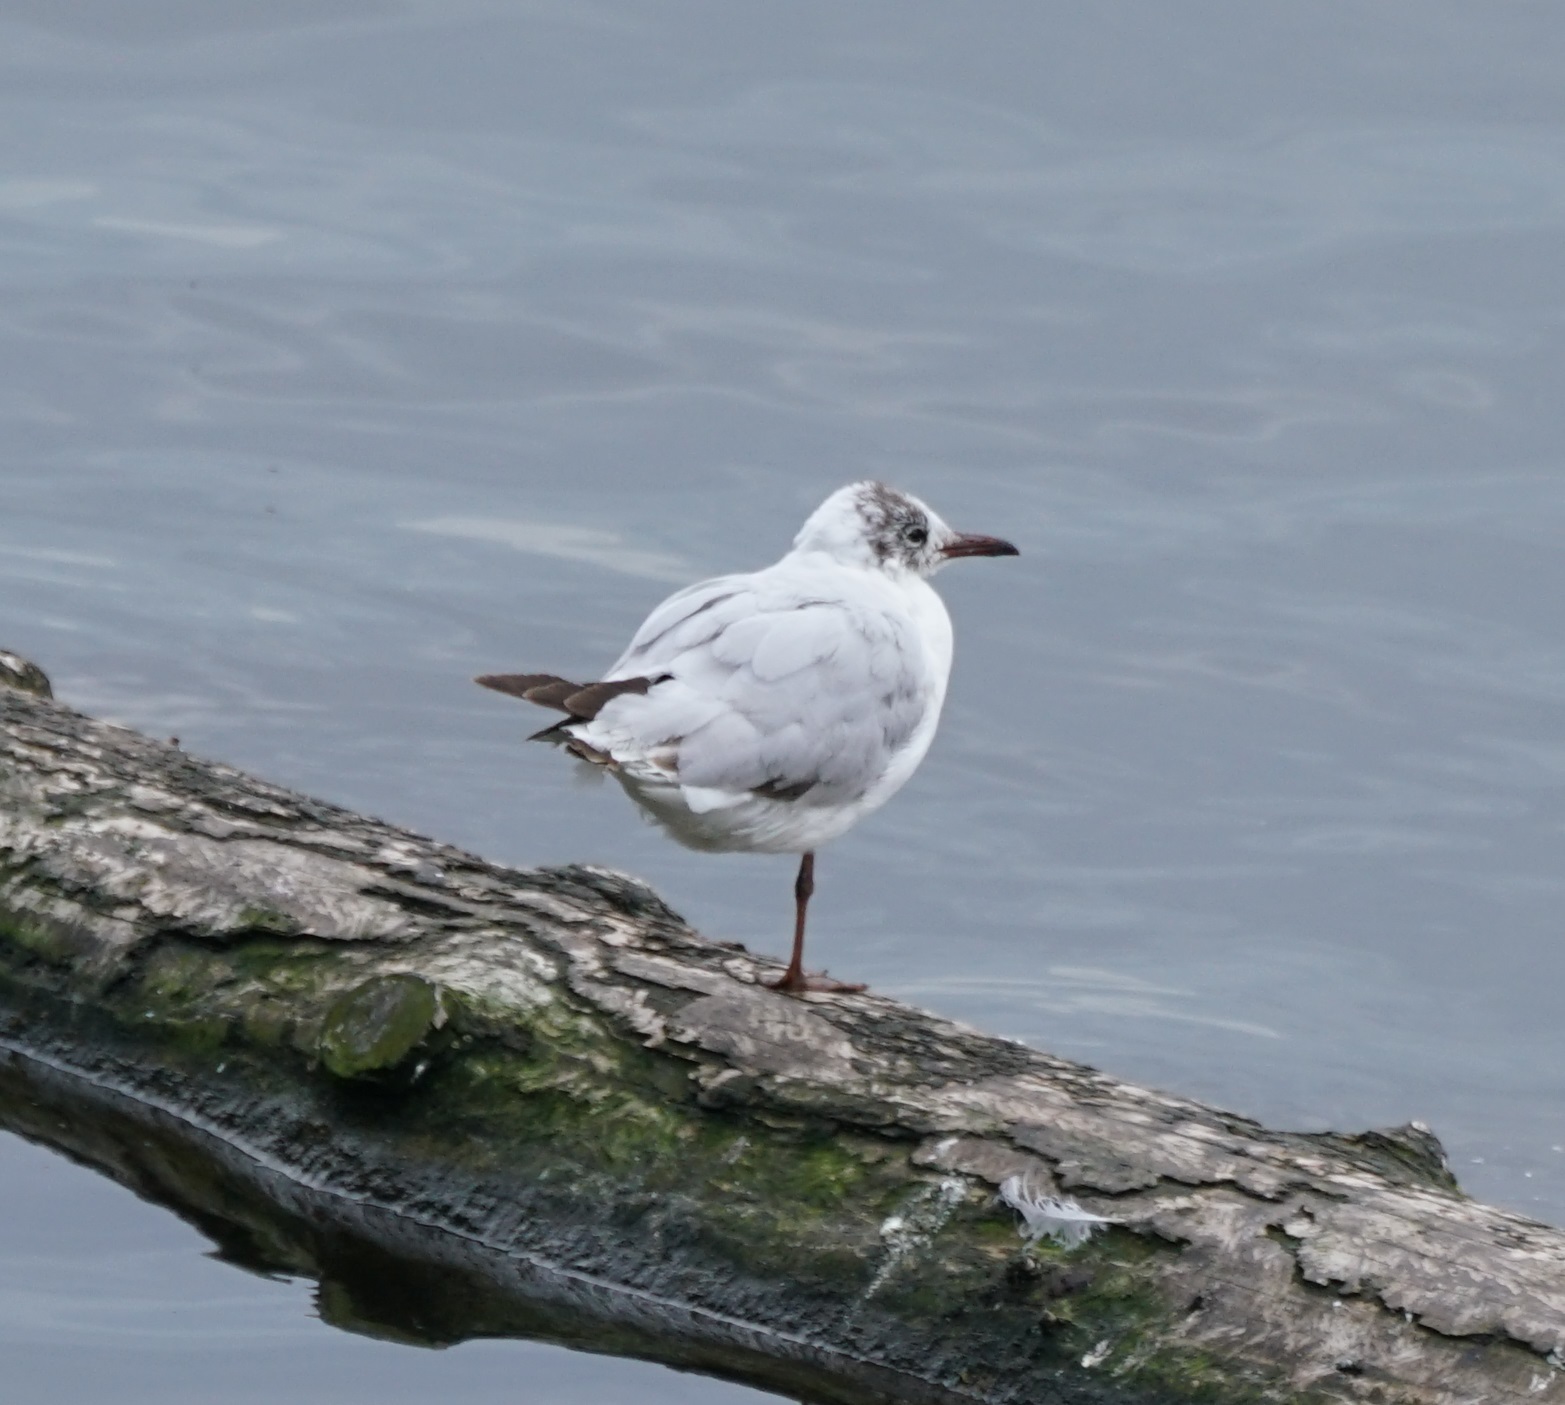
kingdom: Animalia
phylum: Chordata
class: Aves
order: Charadriiformes
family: Laridae
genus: Chroicocephalus
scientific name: Chroicocephalus ridibundus
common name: Black-headed gull
